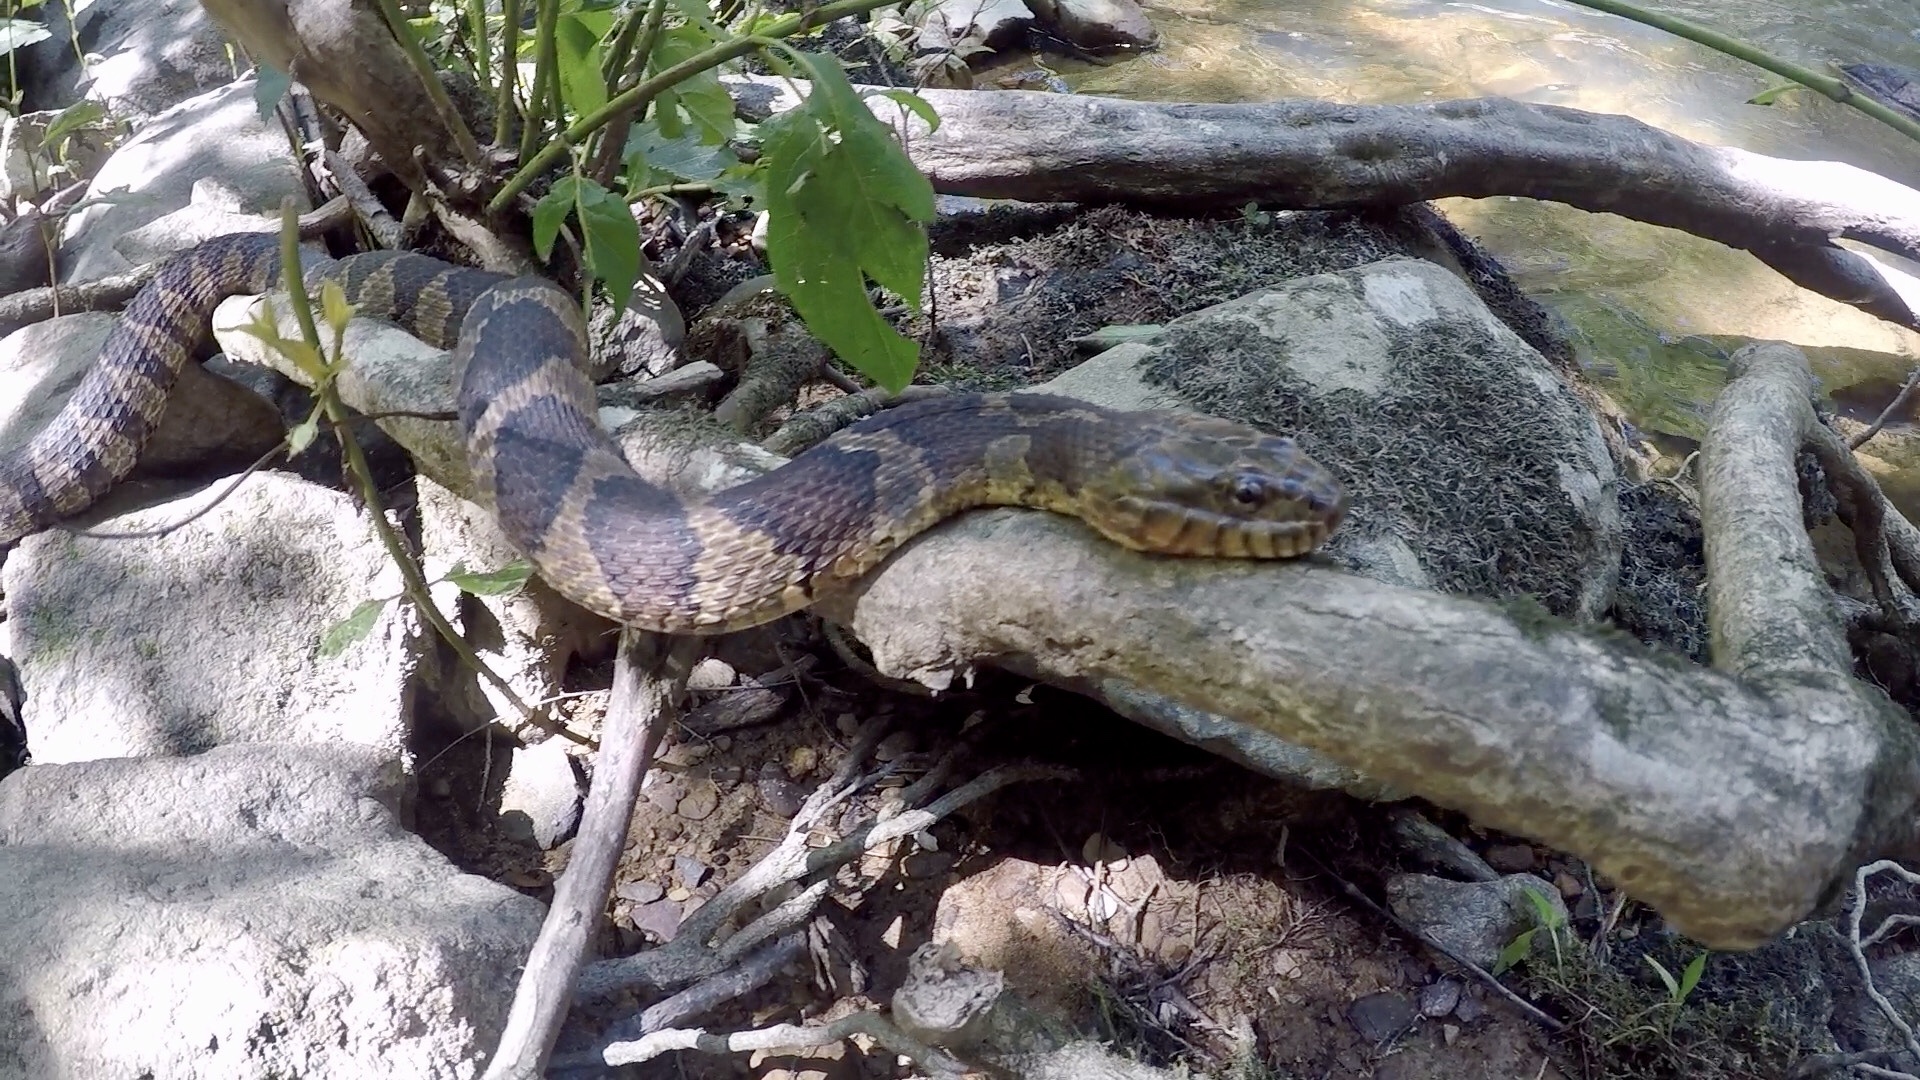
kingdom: Animalia
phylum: Chordata
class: Squamata
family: Colubridae
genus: Nerodia
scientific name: Nerodia sipedon
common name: Northern water snake
